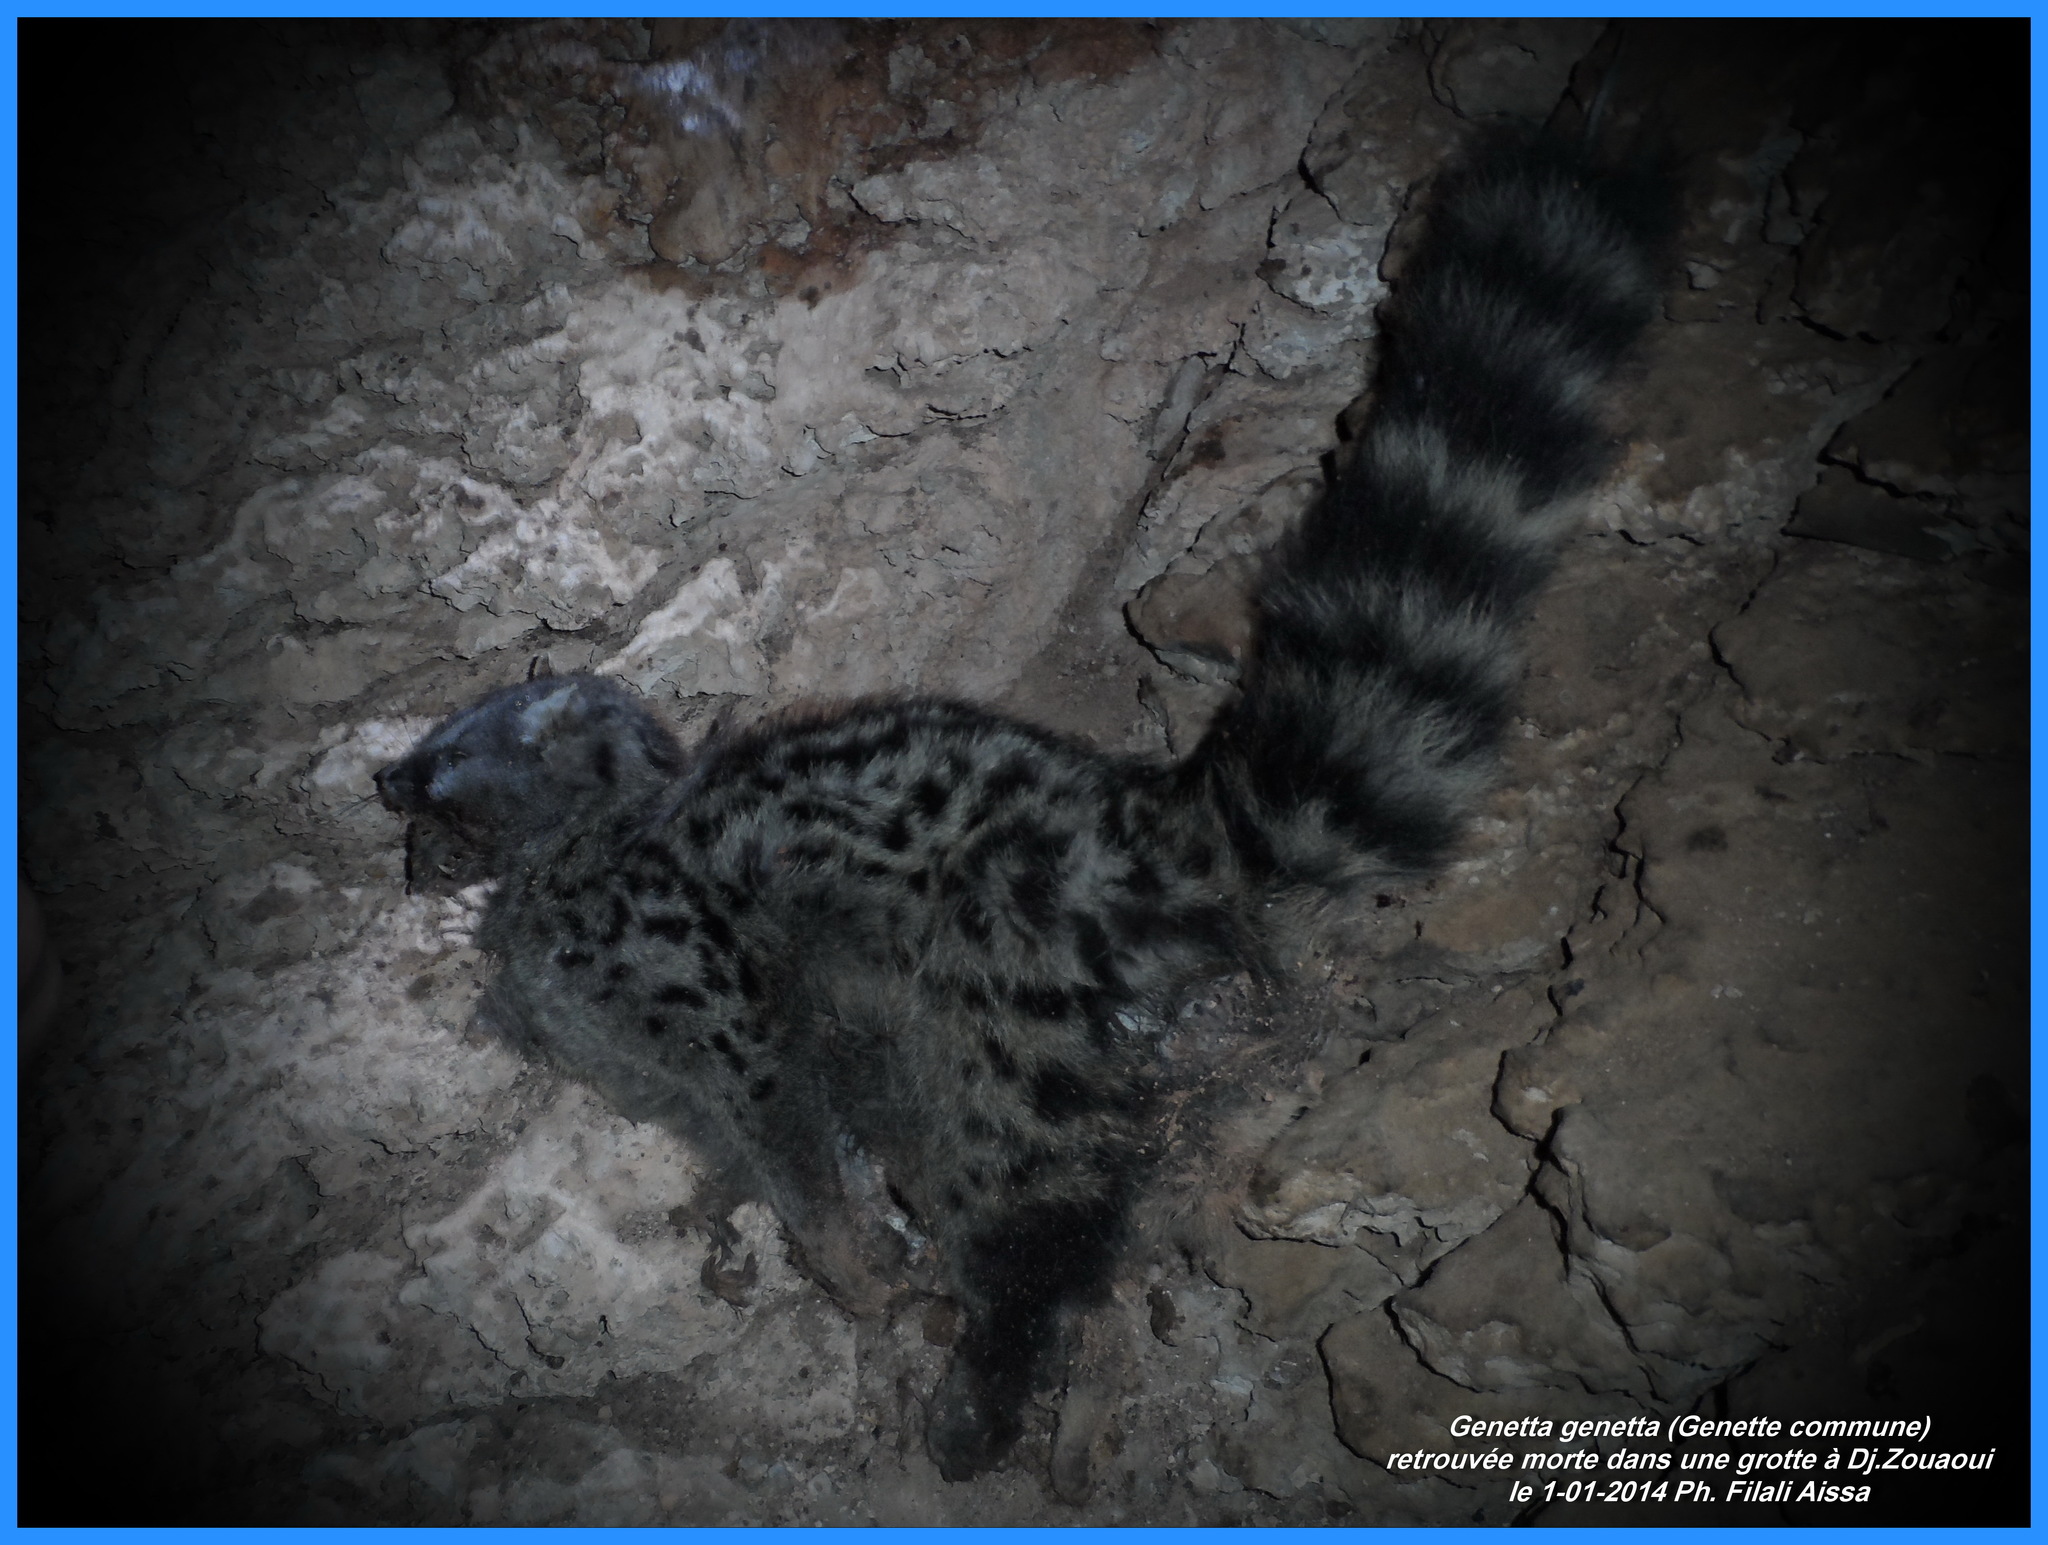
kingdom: Animalia
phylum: Chordata
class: Mammalia
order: Carnivora
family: Viverridae
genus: Genetta
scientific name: Genetta genetta
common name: Common genet
